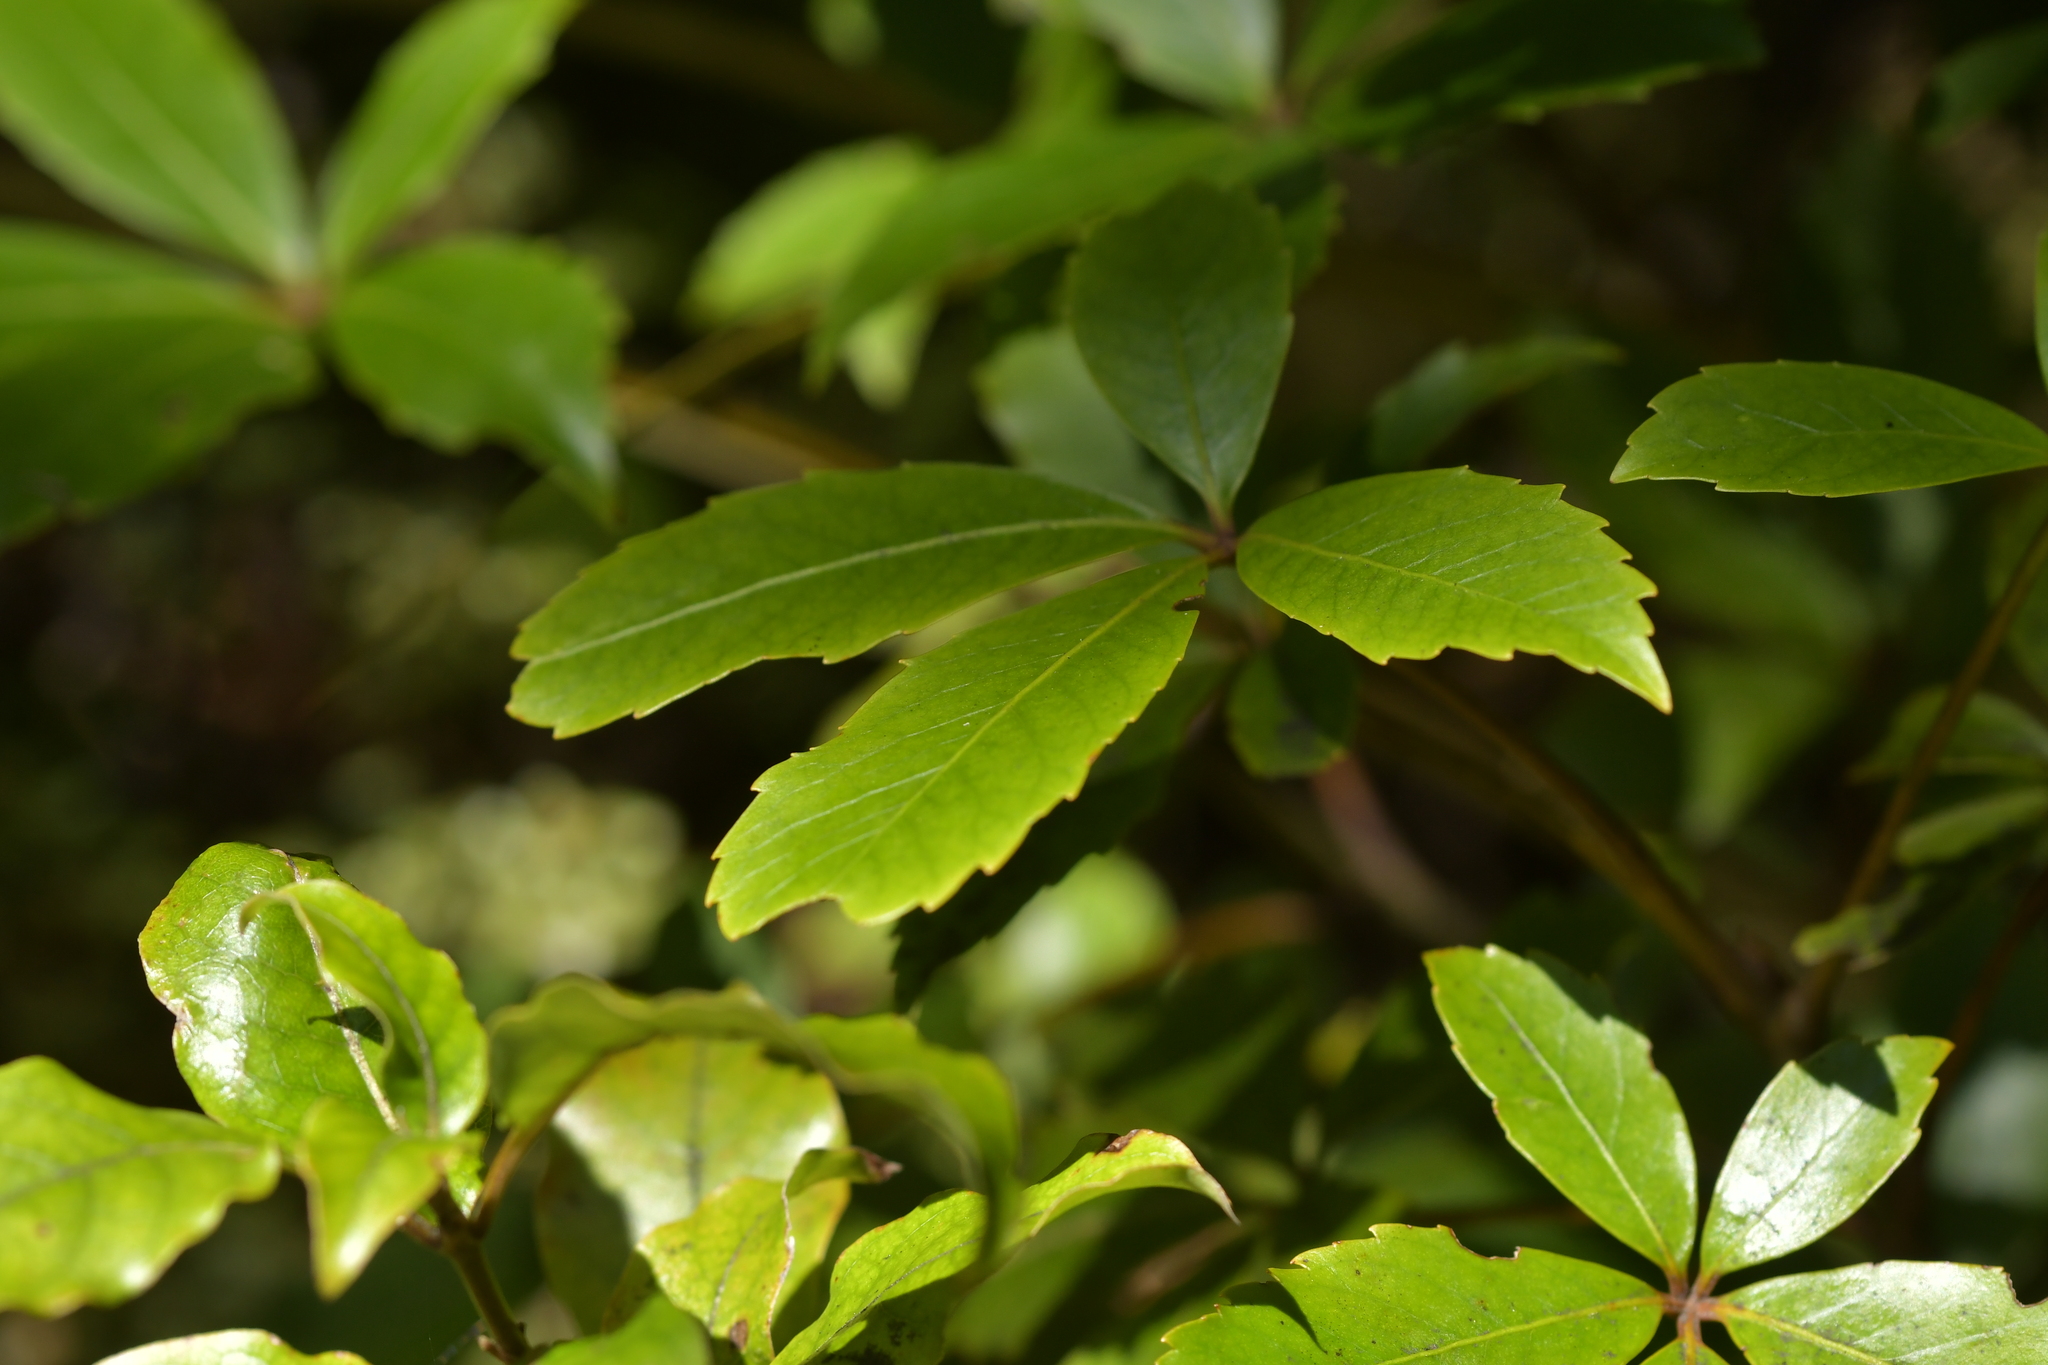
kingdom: Plantae
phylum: Tracheophyta
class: Magnoliopsida
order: Apiales
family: Araliaceae
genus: Neopanax
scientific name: Neopanax colensoi
